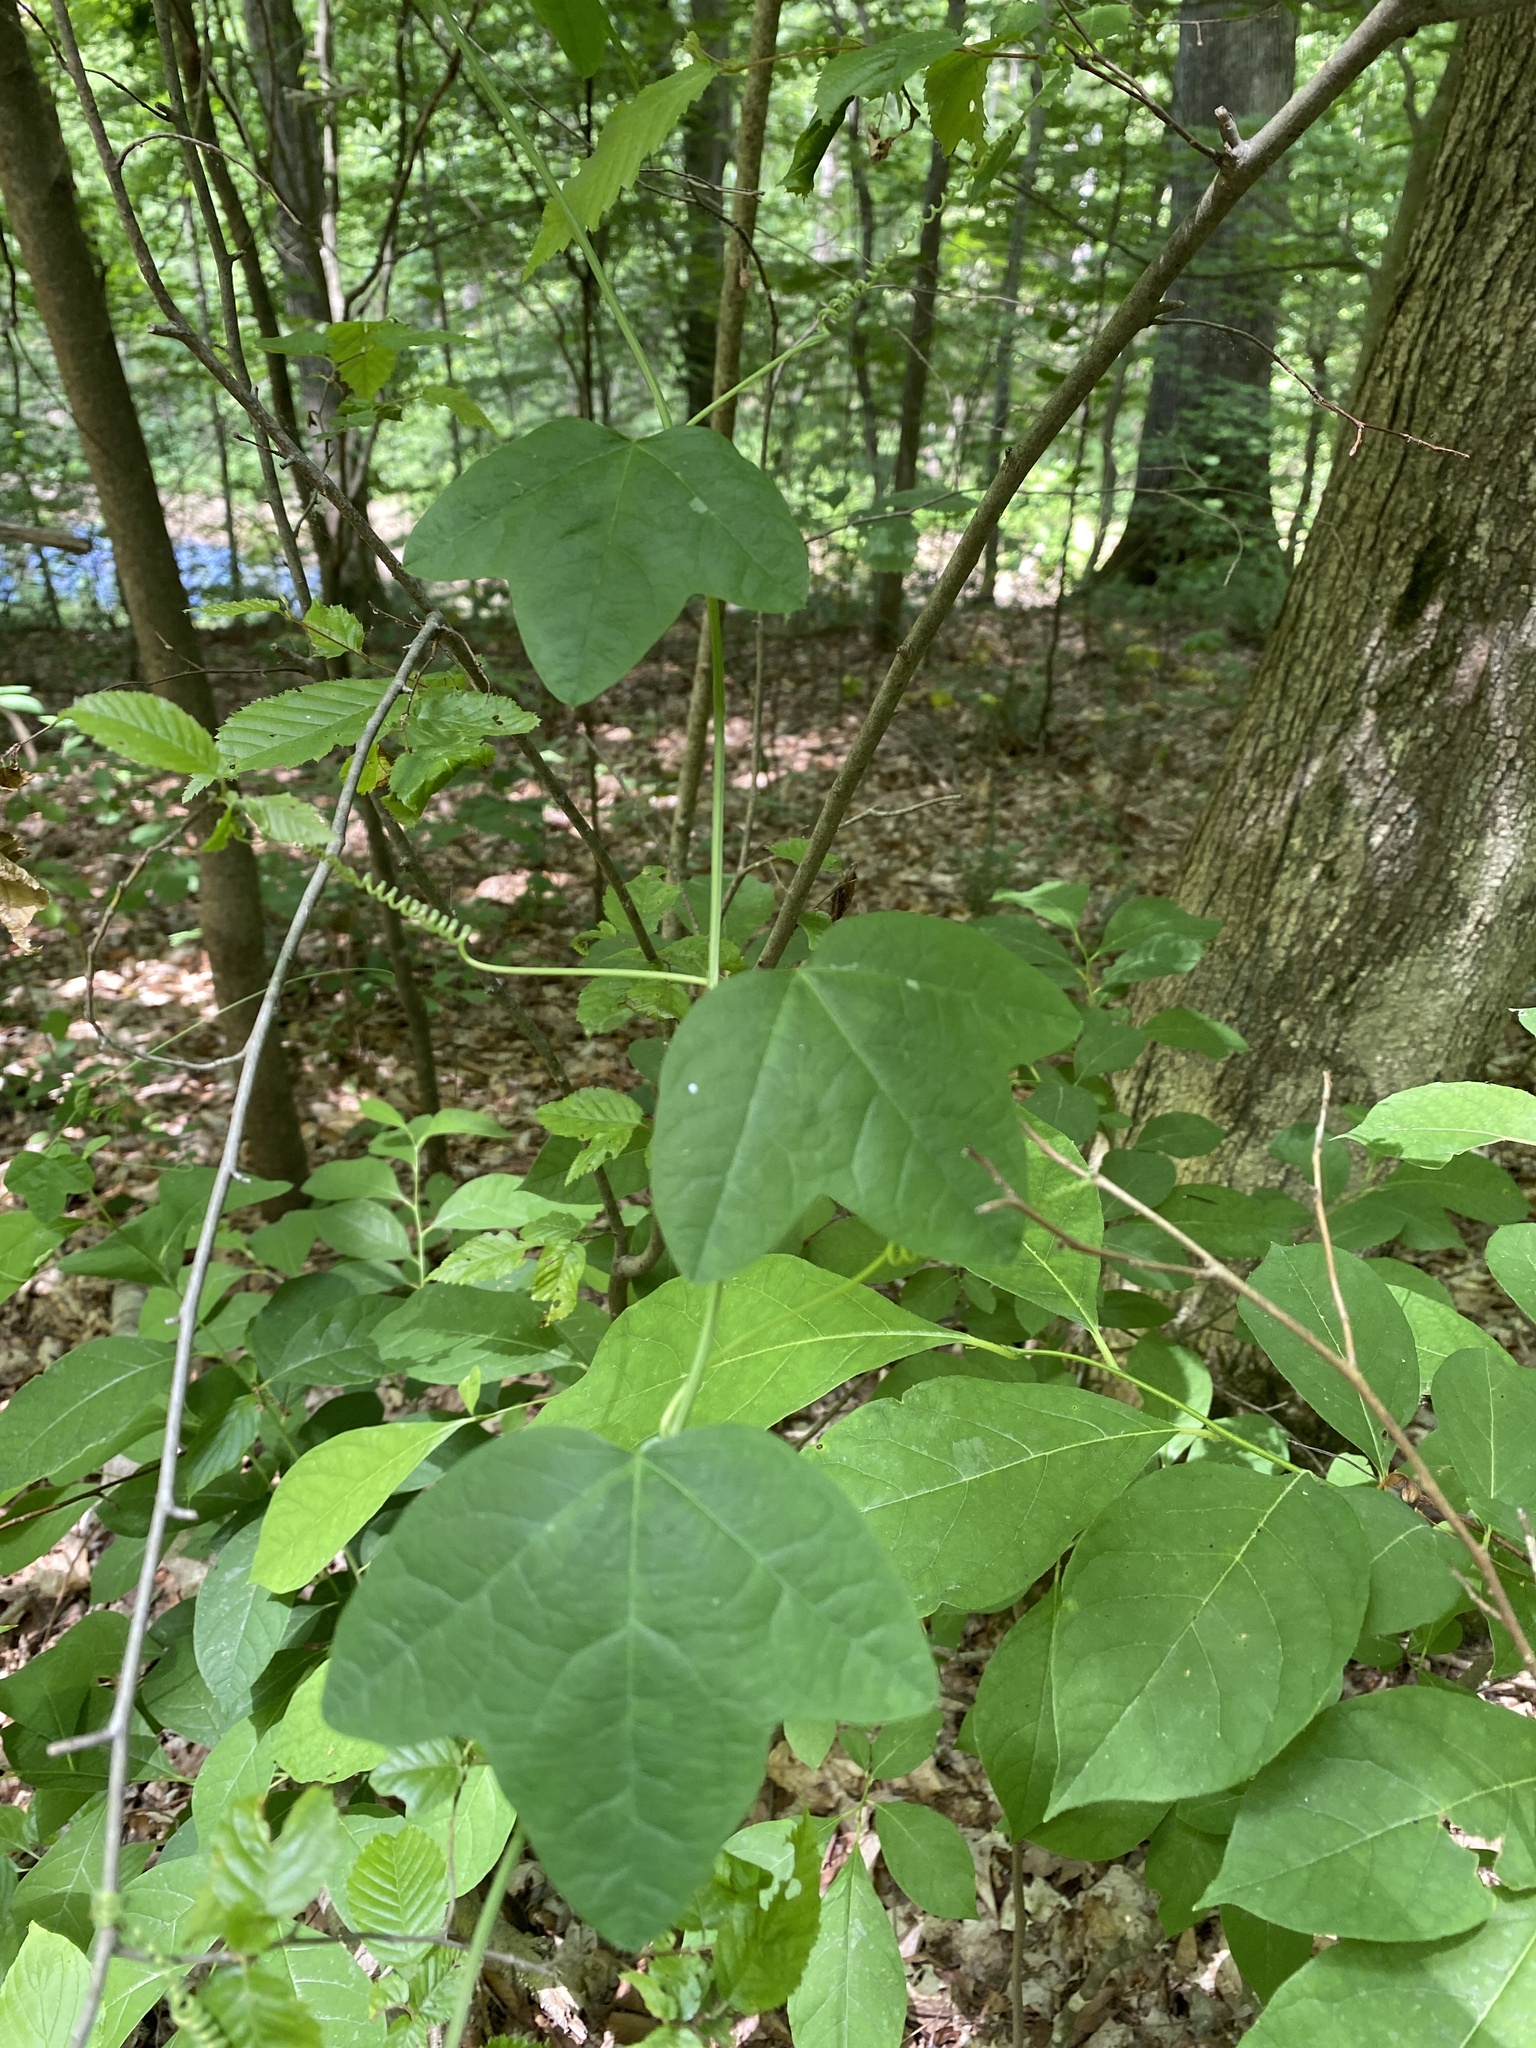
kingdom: Plantae
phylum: Tracheophyta
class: Magnoliopsida
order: Malpighiales
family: Passifloraceae
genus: Passiflora
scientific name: Passiflora lutea
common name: Yellow passionflower
